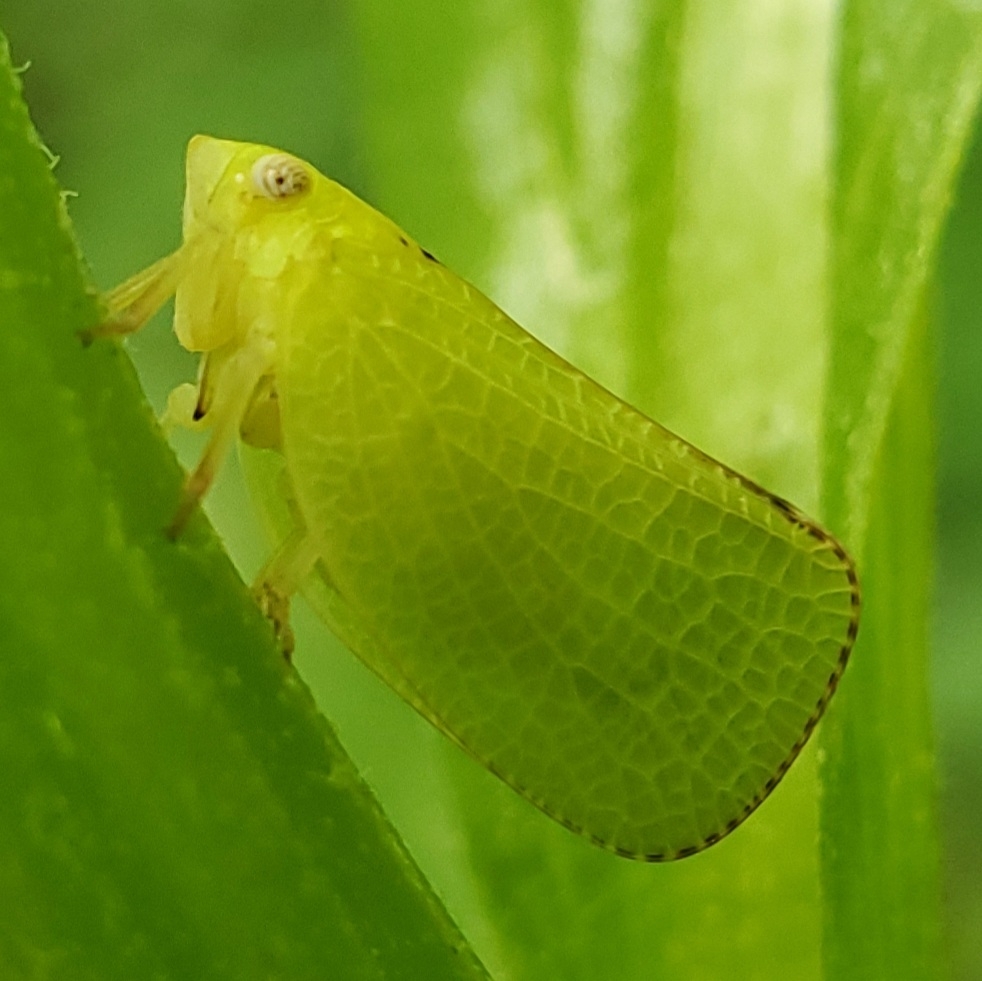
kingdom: Animalia
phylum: Arthropoda
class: Insecta
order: Hemiptera
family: Acanaloniidae
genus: Acanalonia
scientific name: Acanalonia conica
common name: Green cone-headed planthopper
